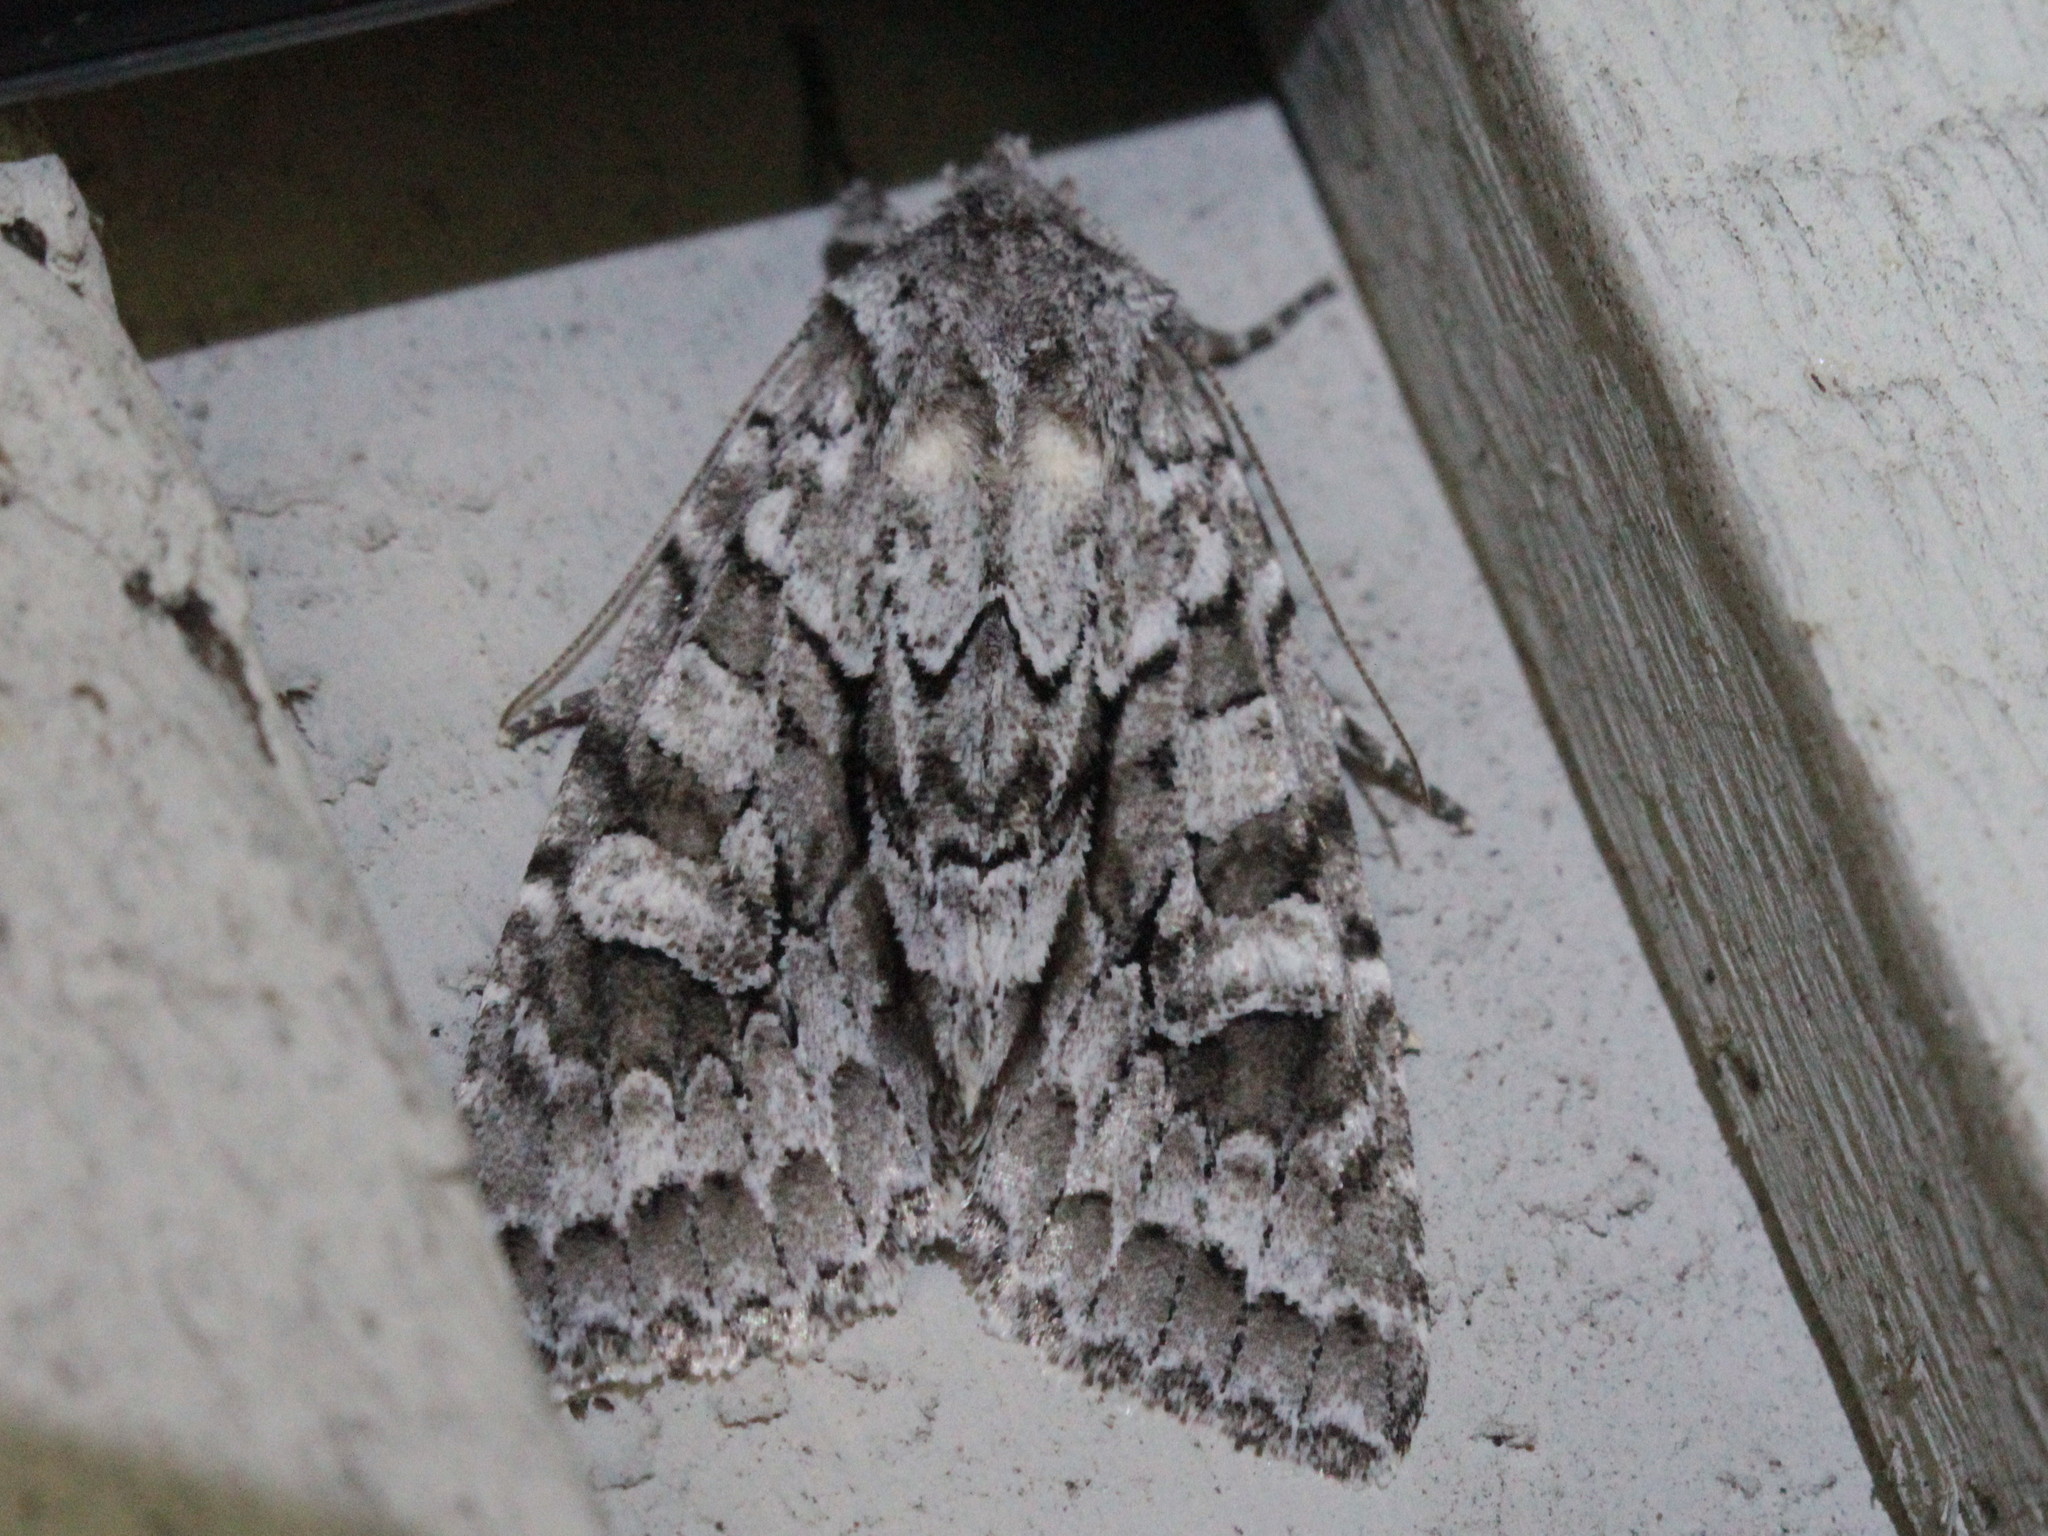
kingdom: Animalia
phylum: Arthropoda
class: Insecta
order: Lepidoptera
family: Noctuidae
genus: Xylotype
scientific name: Xylotype arcadia
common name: Acadian sallow
